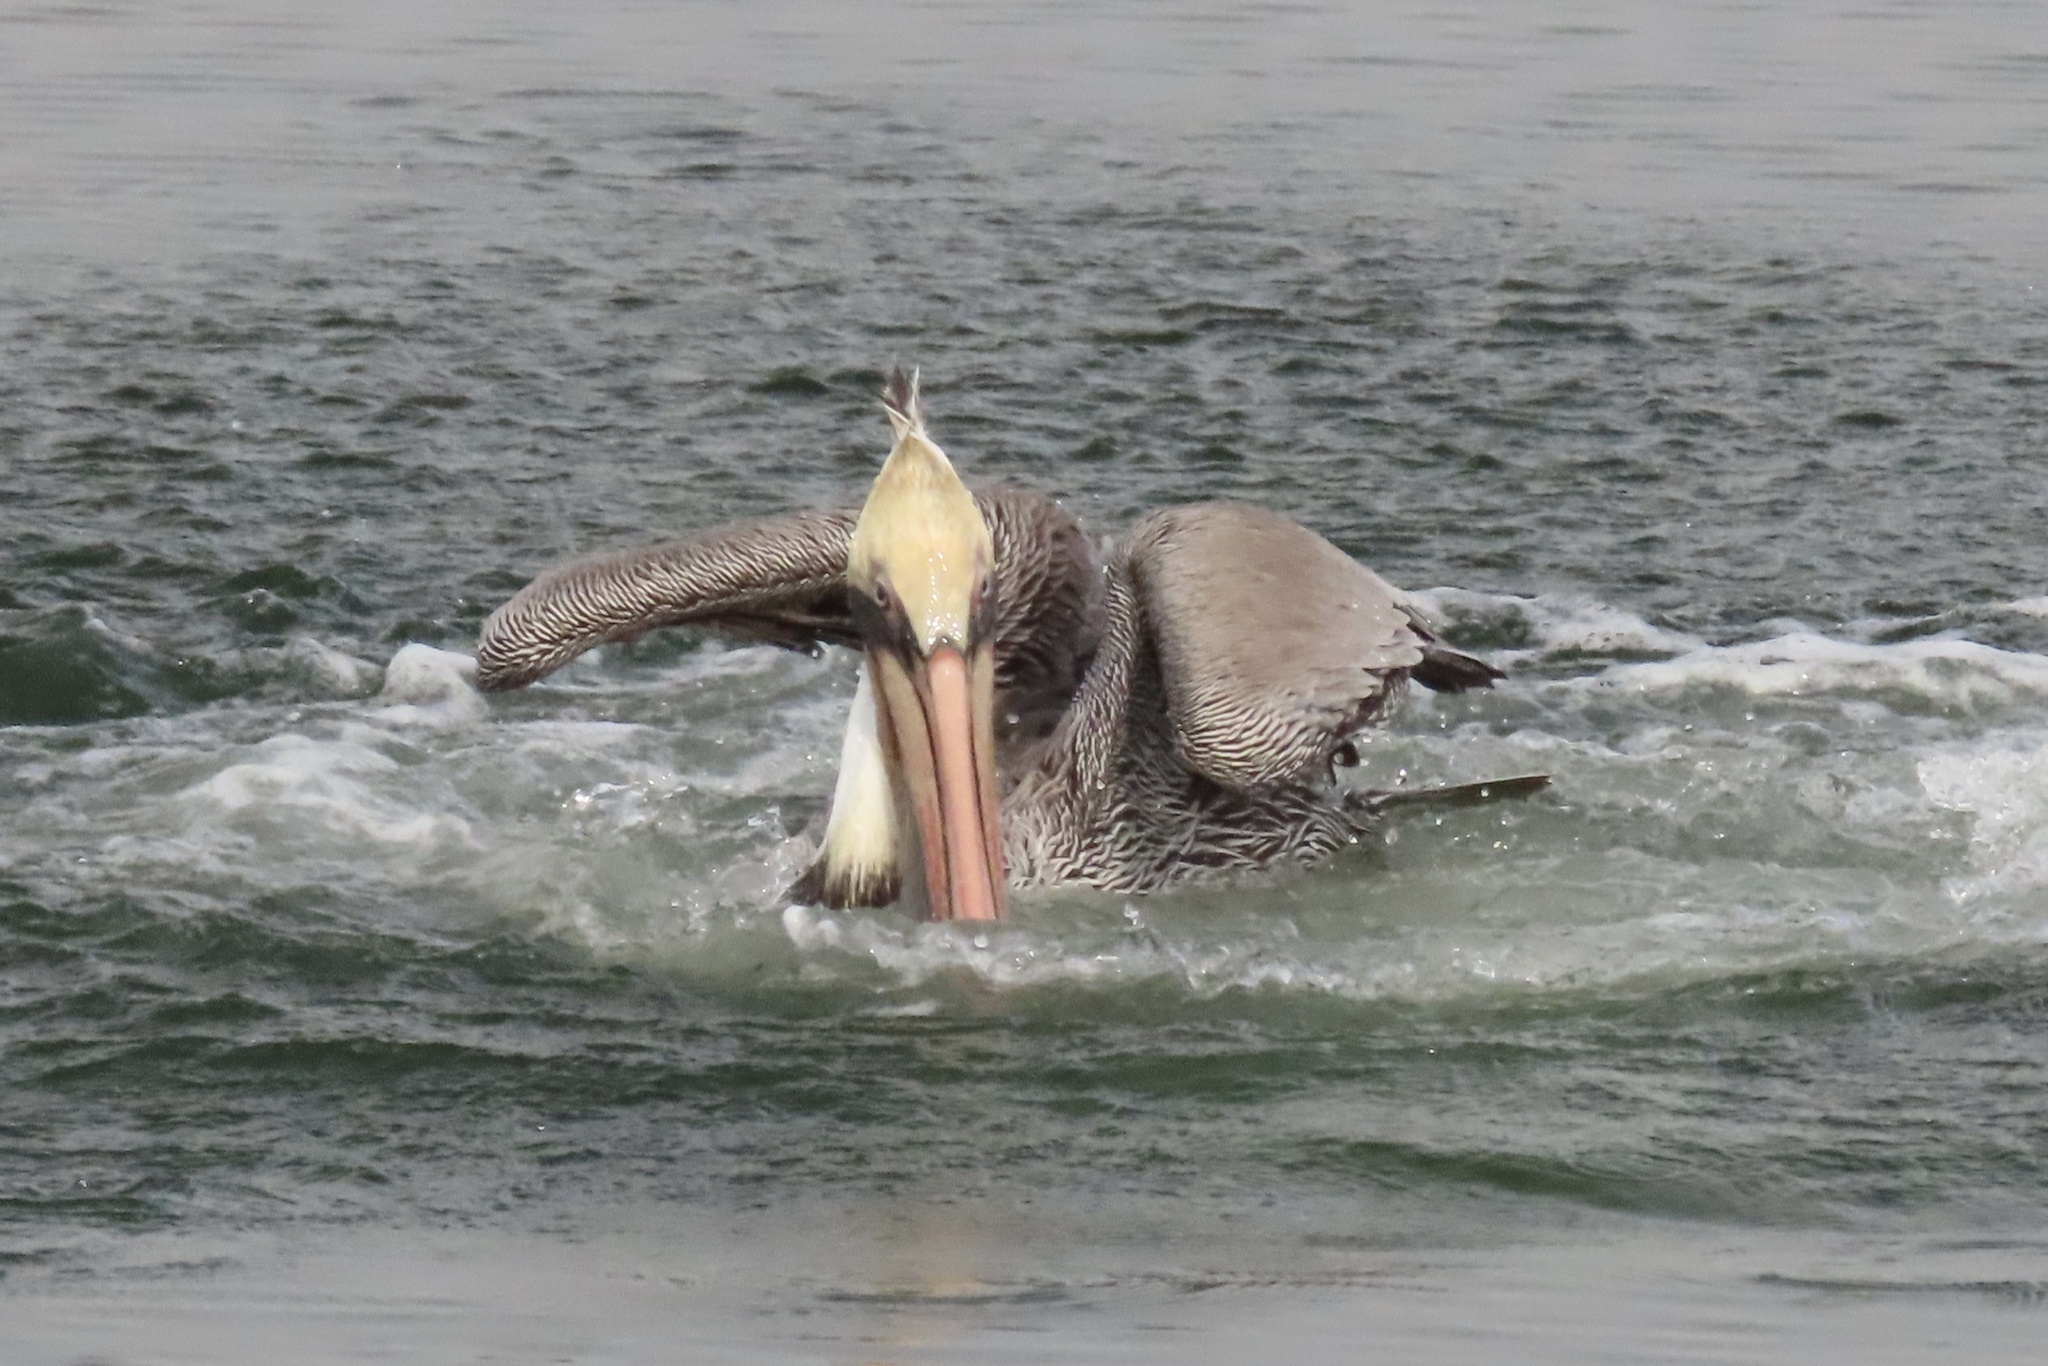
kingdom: Animalia
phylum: Chordata
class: Aves
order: Pelecaniformes
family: Pelecanidae
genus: Pelecanus
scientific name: Pelecanus occidentalis
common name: Brown pelican
